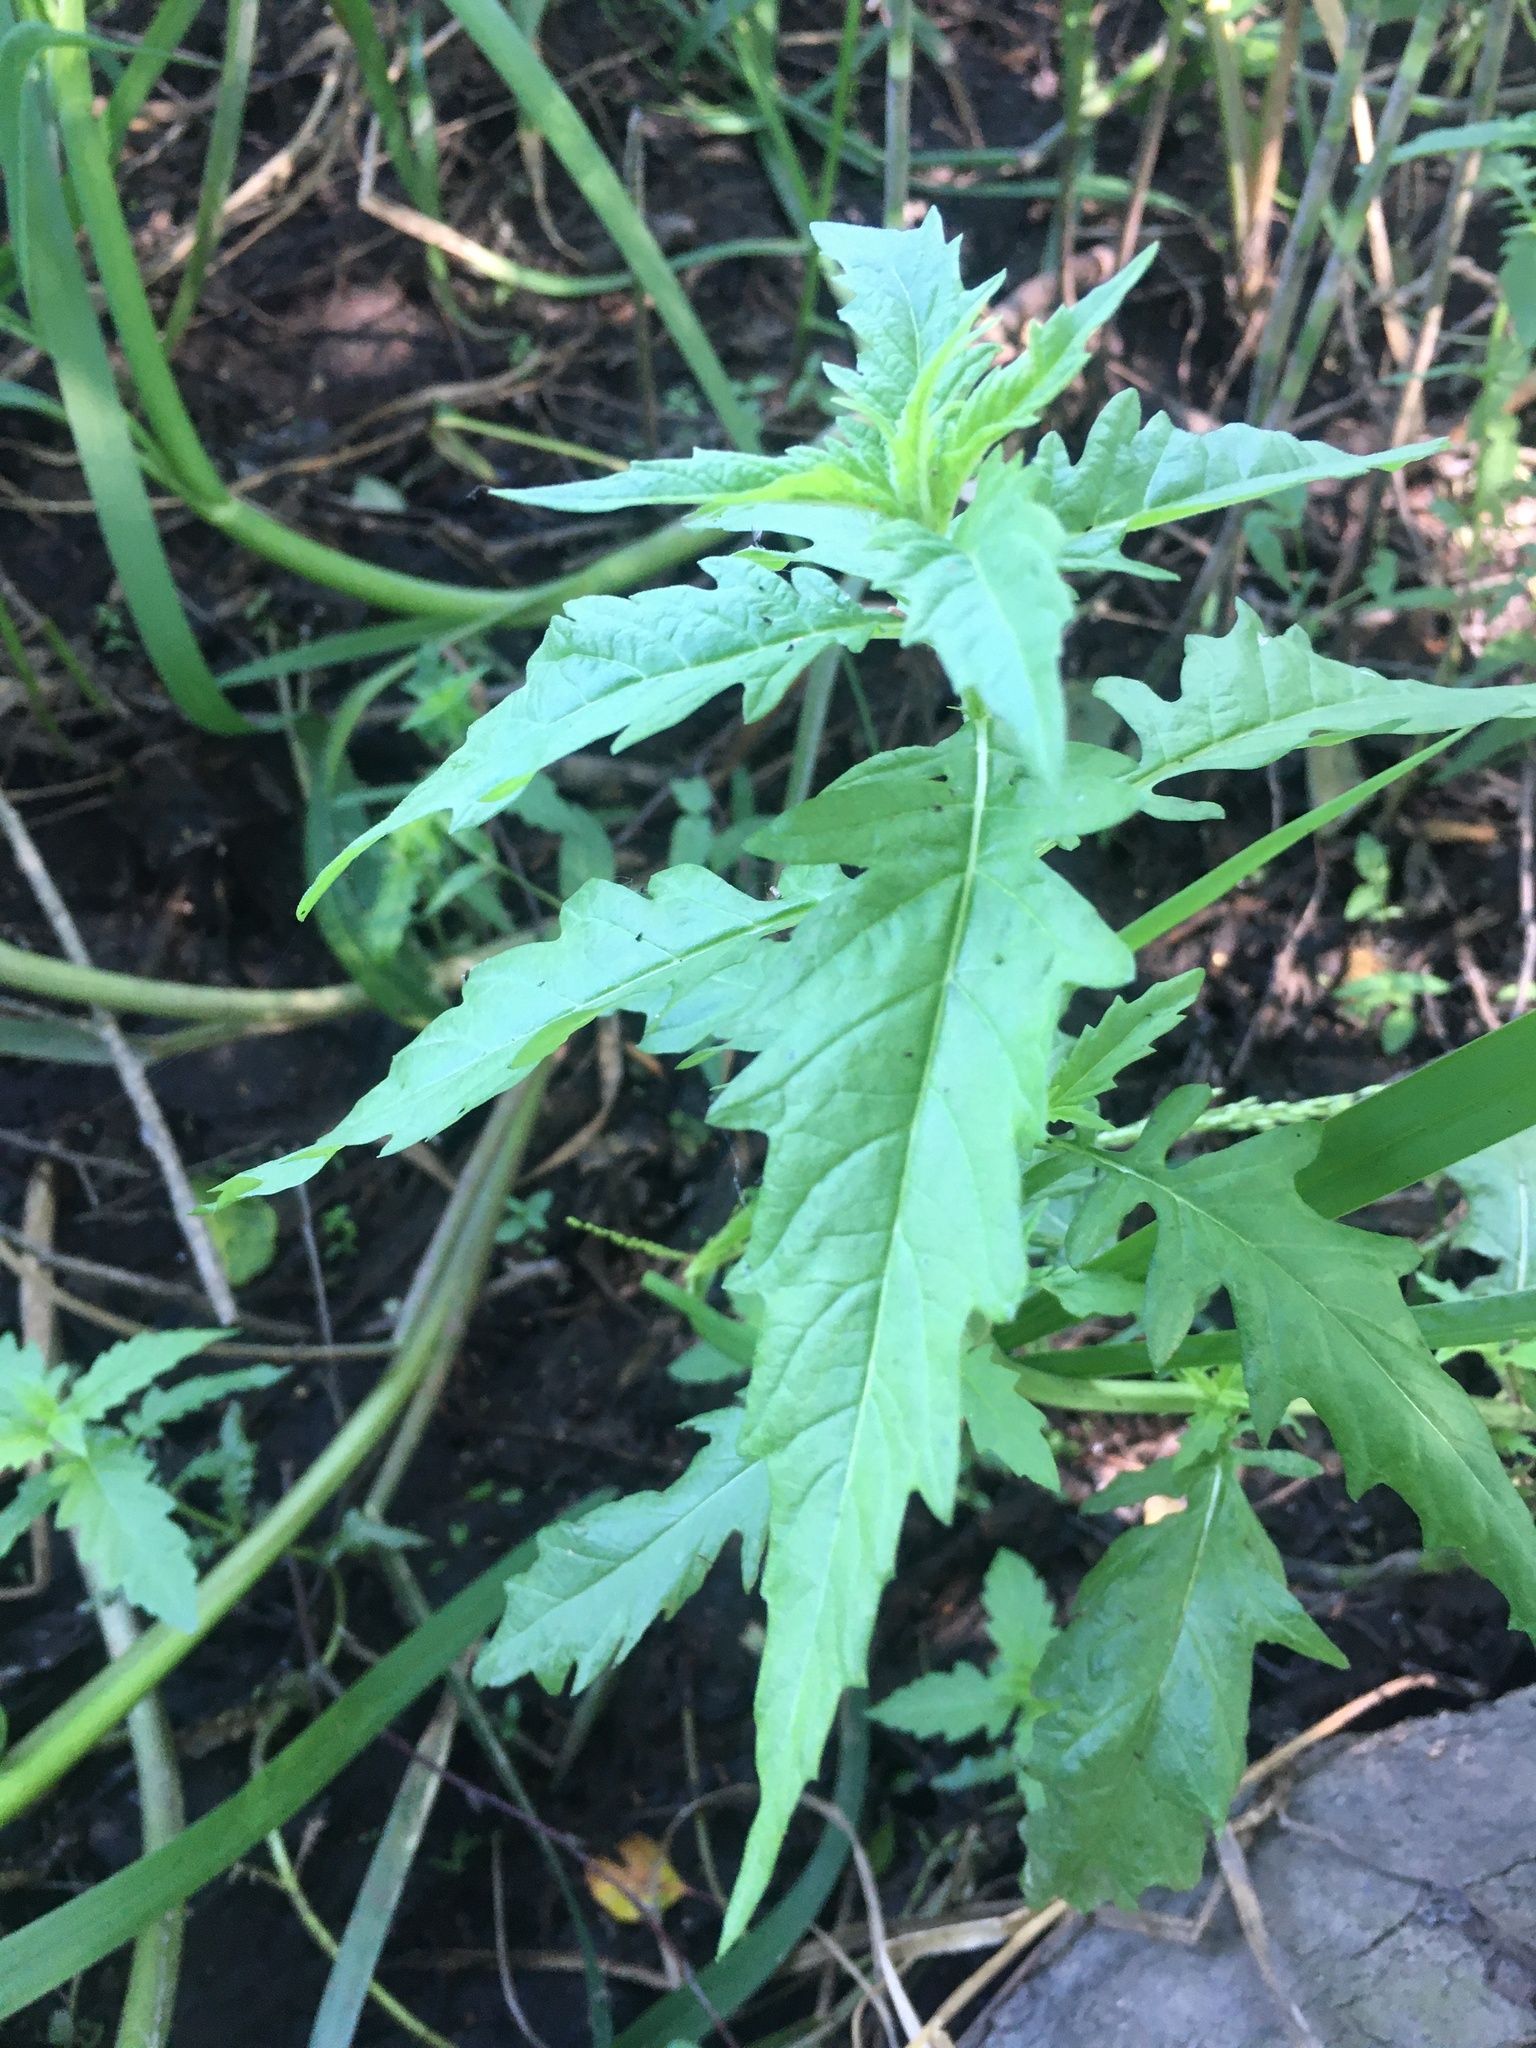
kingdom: Plantae
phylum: Tracheophyta
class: Magnoliopsida
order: Lamiales
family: Lamiaceae
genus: Lycopus
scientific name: Lycopus europaeus
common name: European bugleweed
